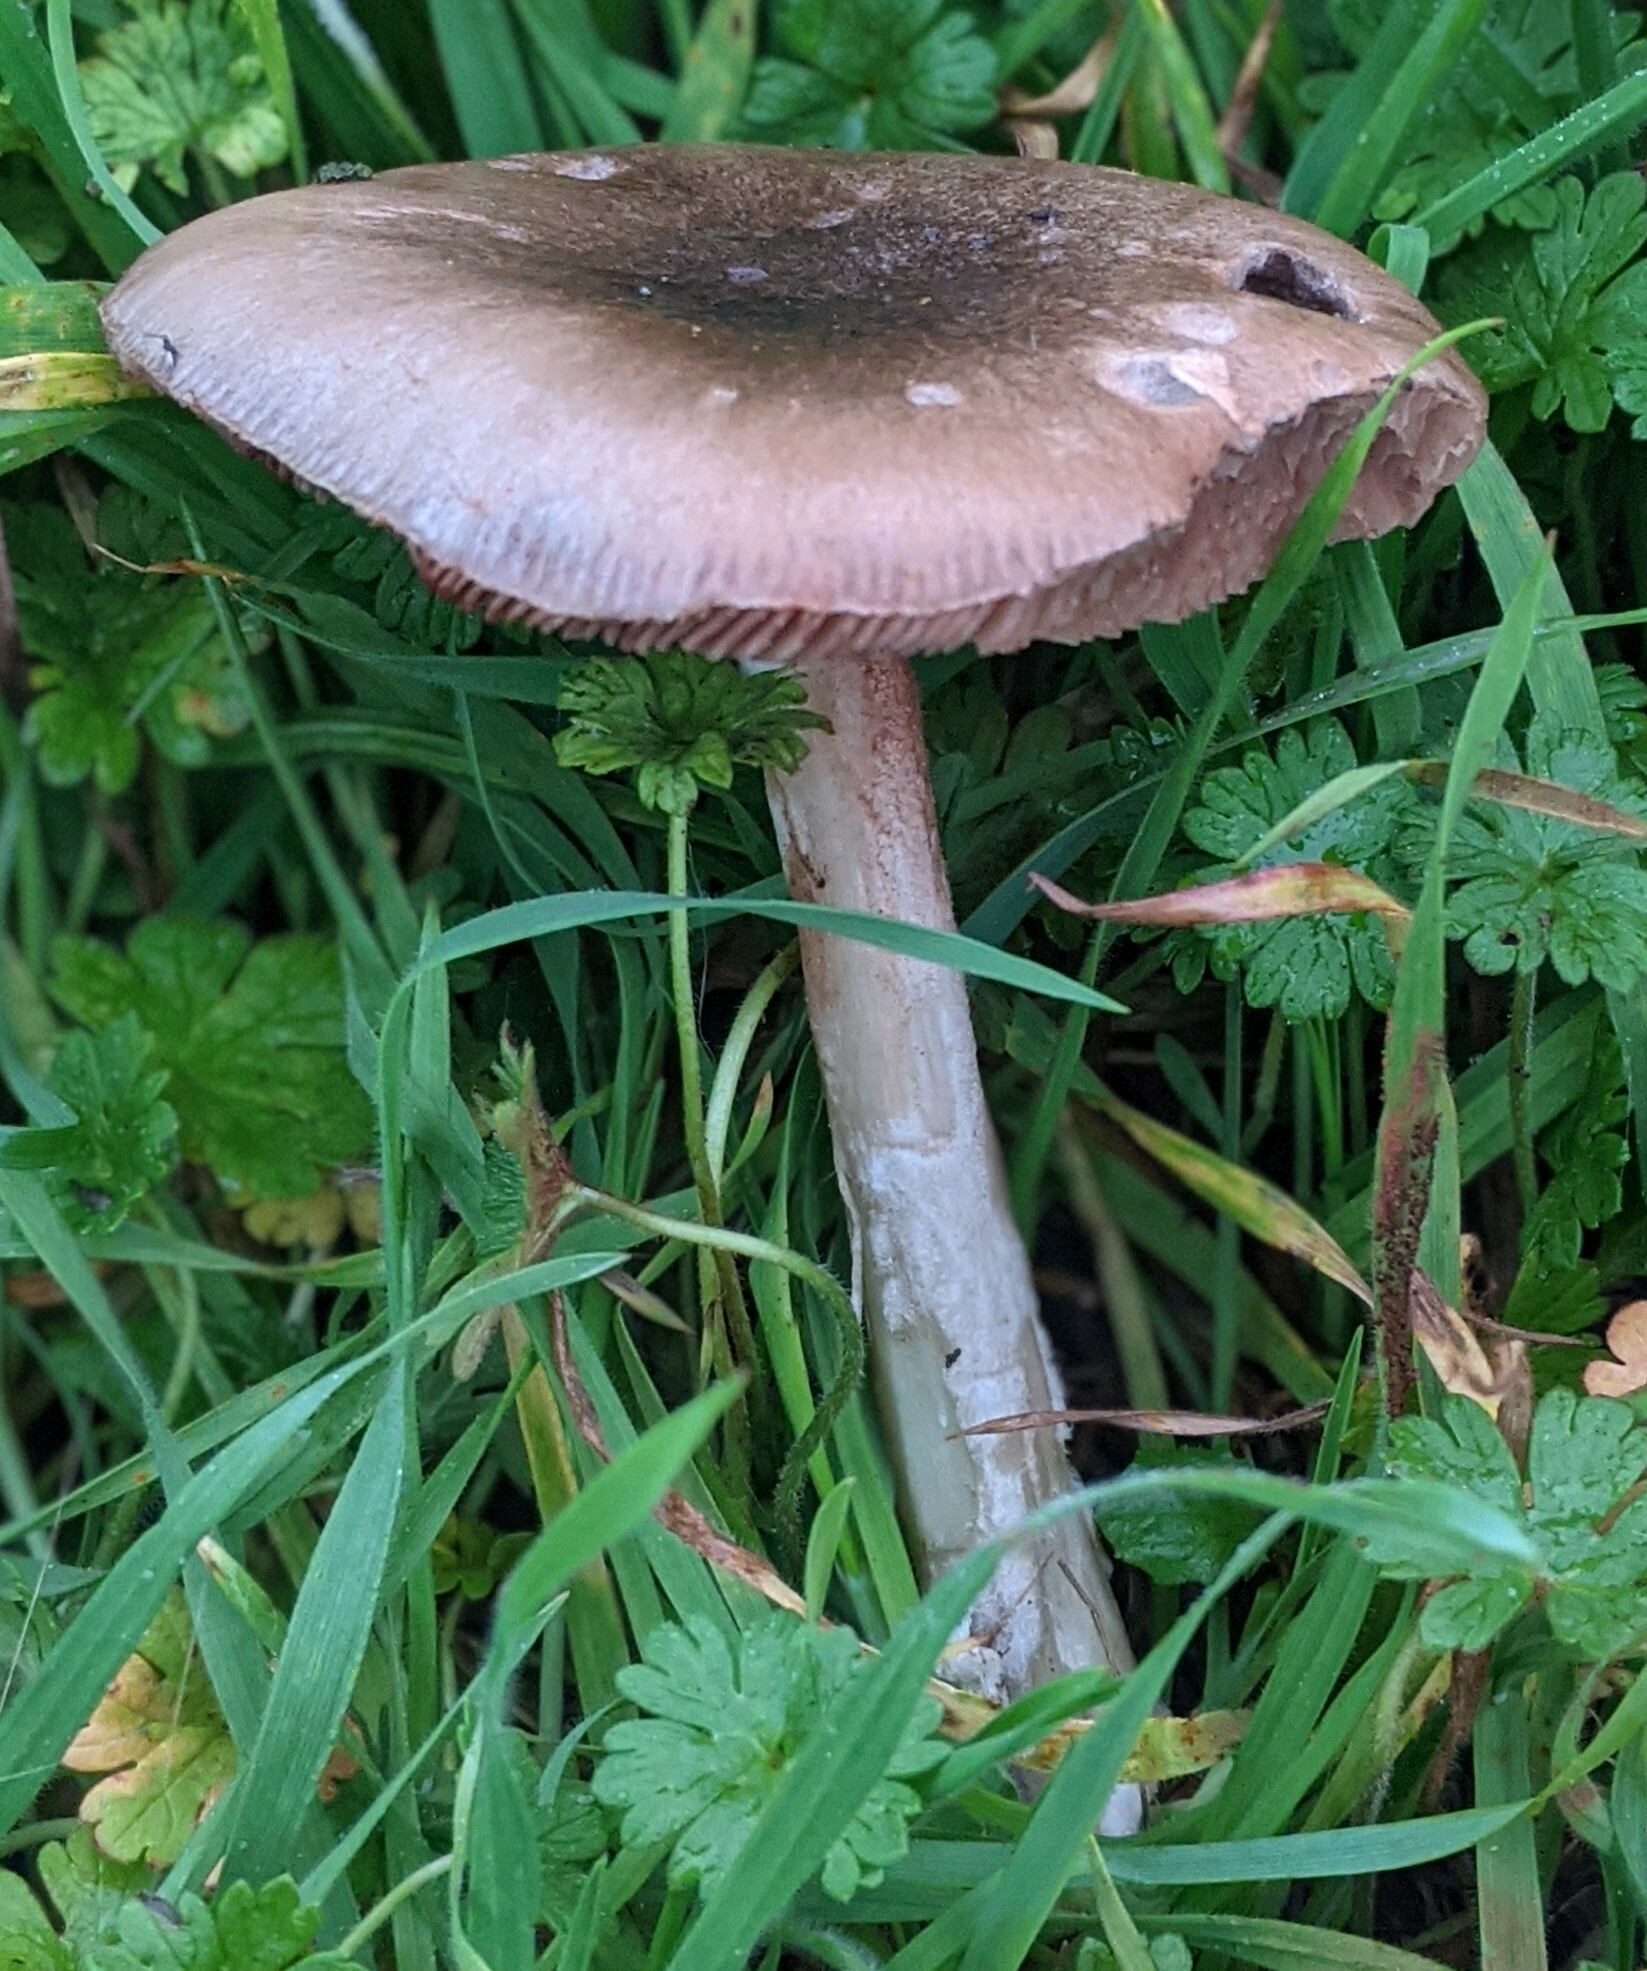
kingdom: Fungi
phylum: Basidiomycota
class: Agaricomycetes
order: Agaricales
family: Pluteaceae
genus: Volvopluteus
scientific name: Volvopluteus gloiocephalus
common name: Stubble rosegill
